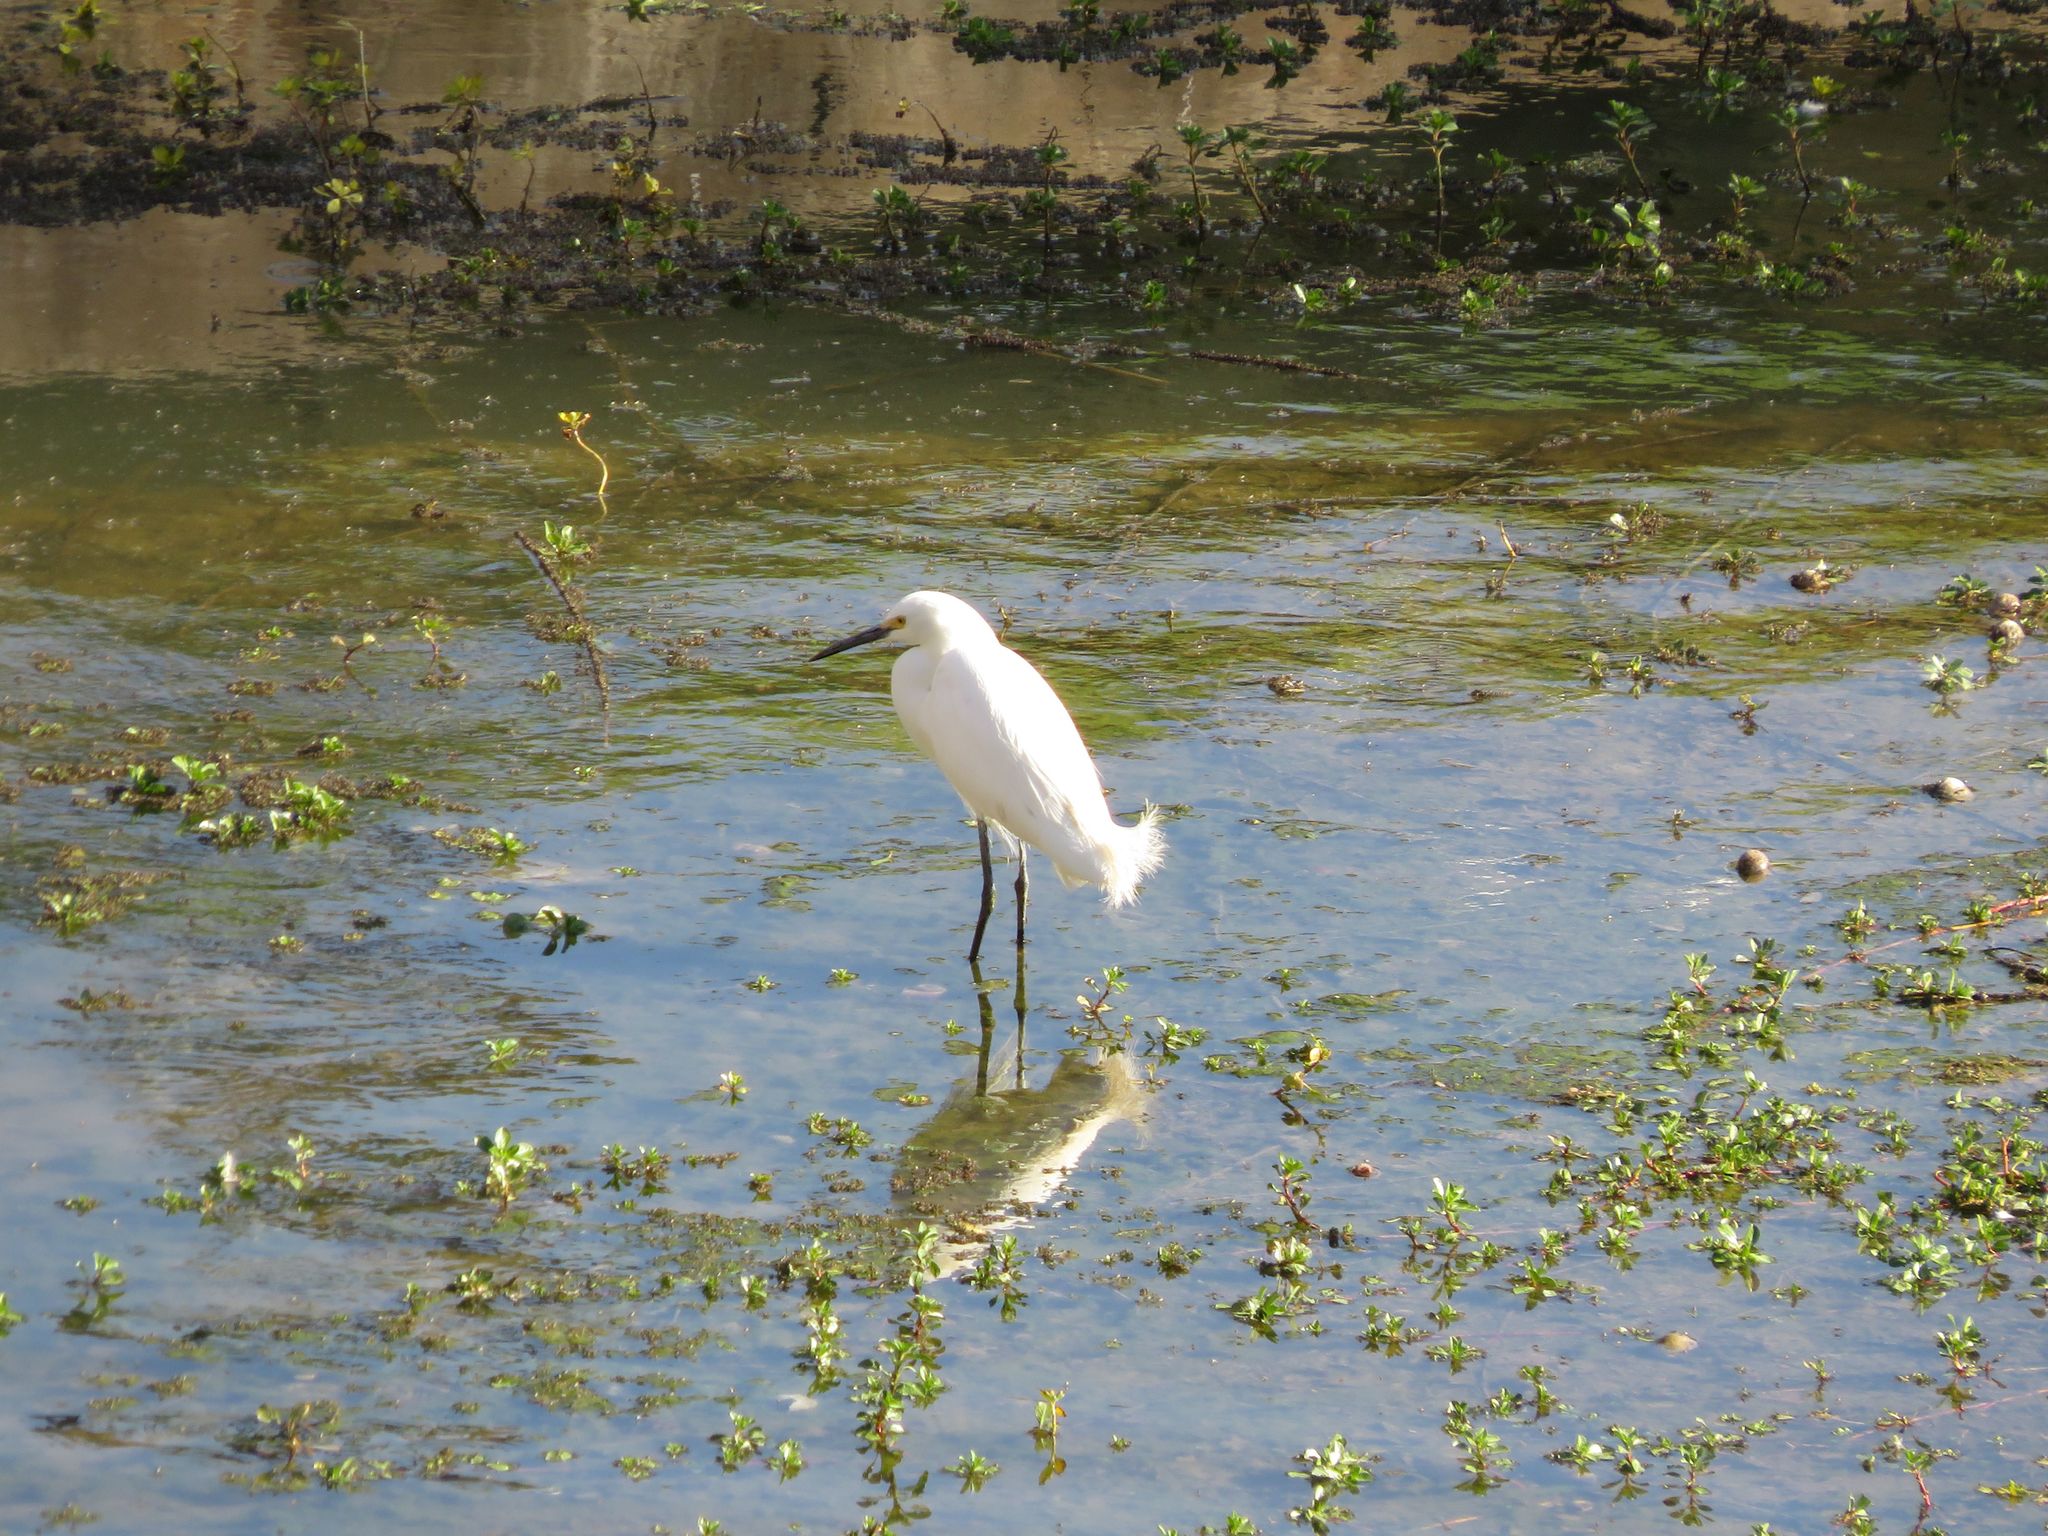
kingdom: Animalia
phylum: Chordata
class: Aves
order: Pelecaniformes
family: Ardeidae
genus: Egretta
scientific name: Egretta thula
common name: Snowy egret
